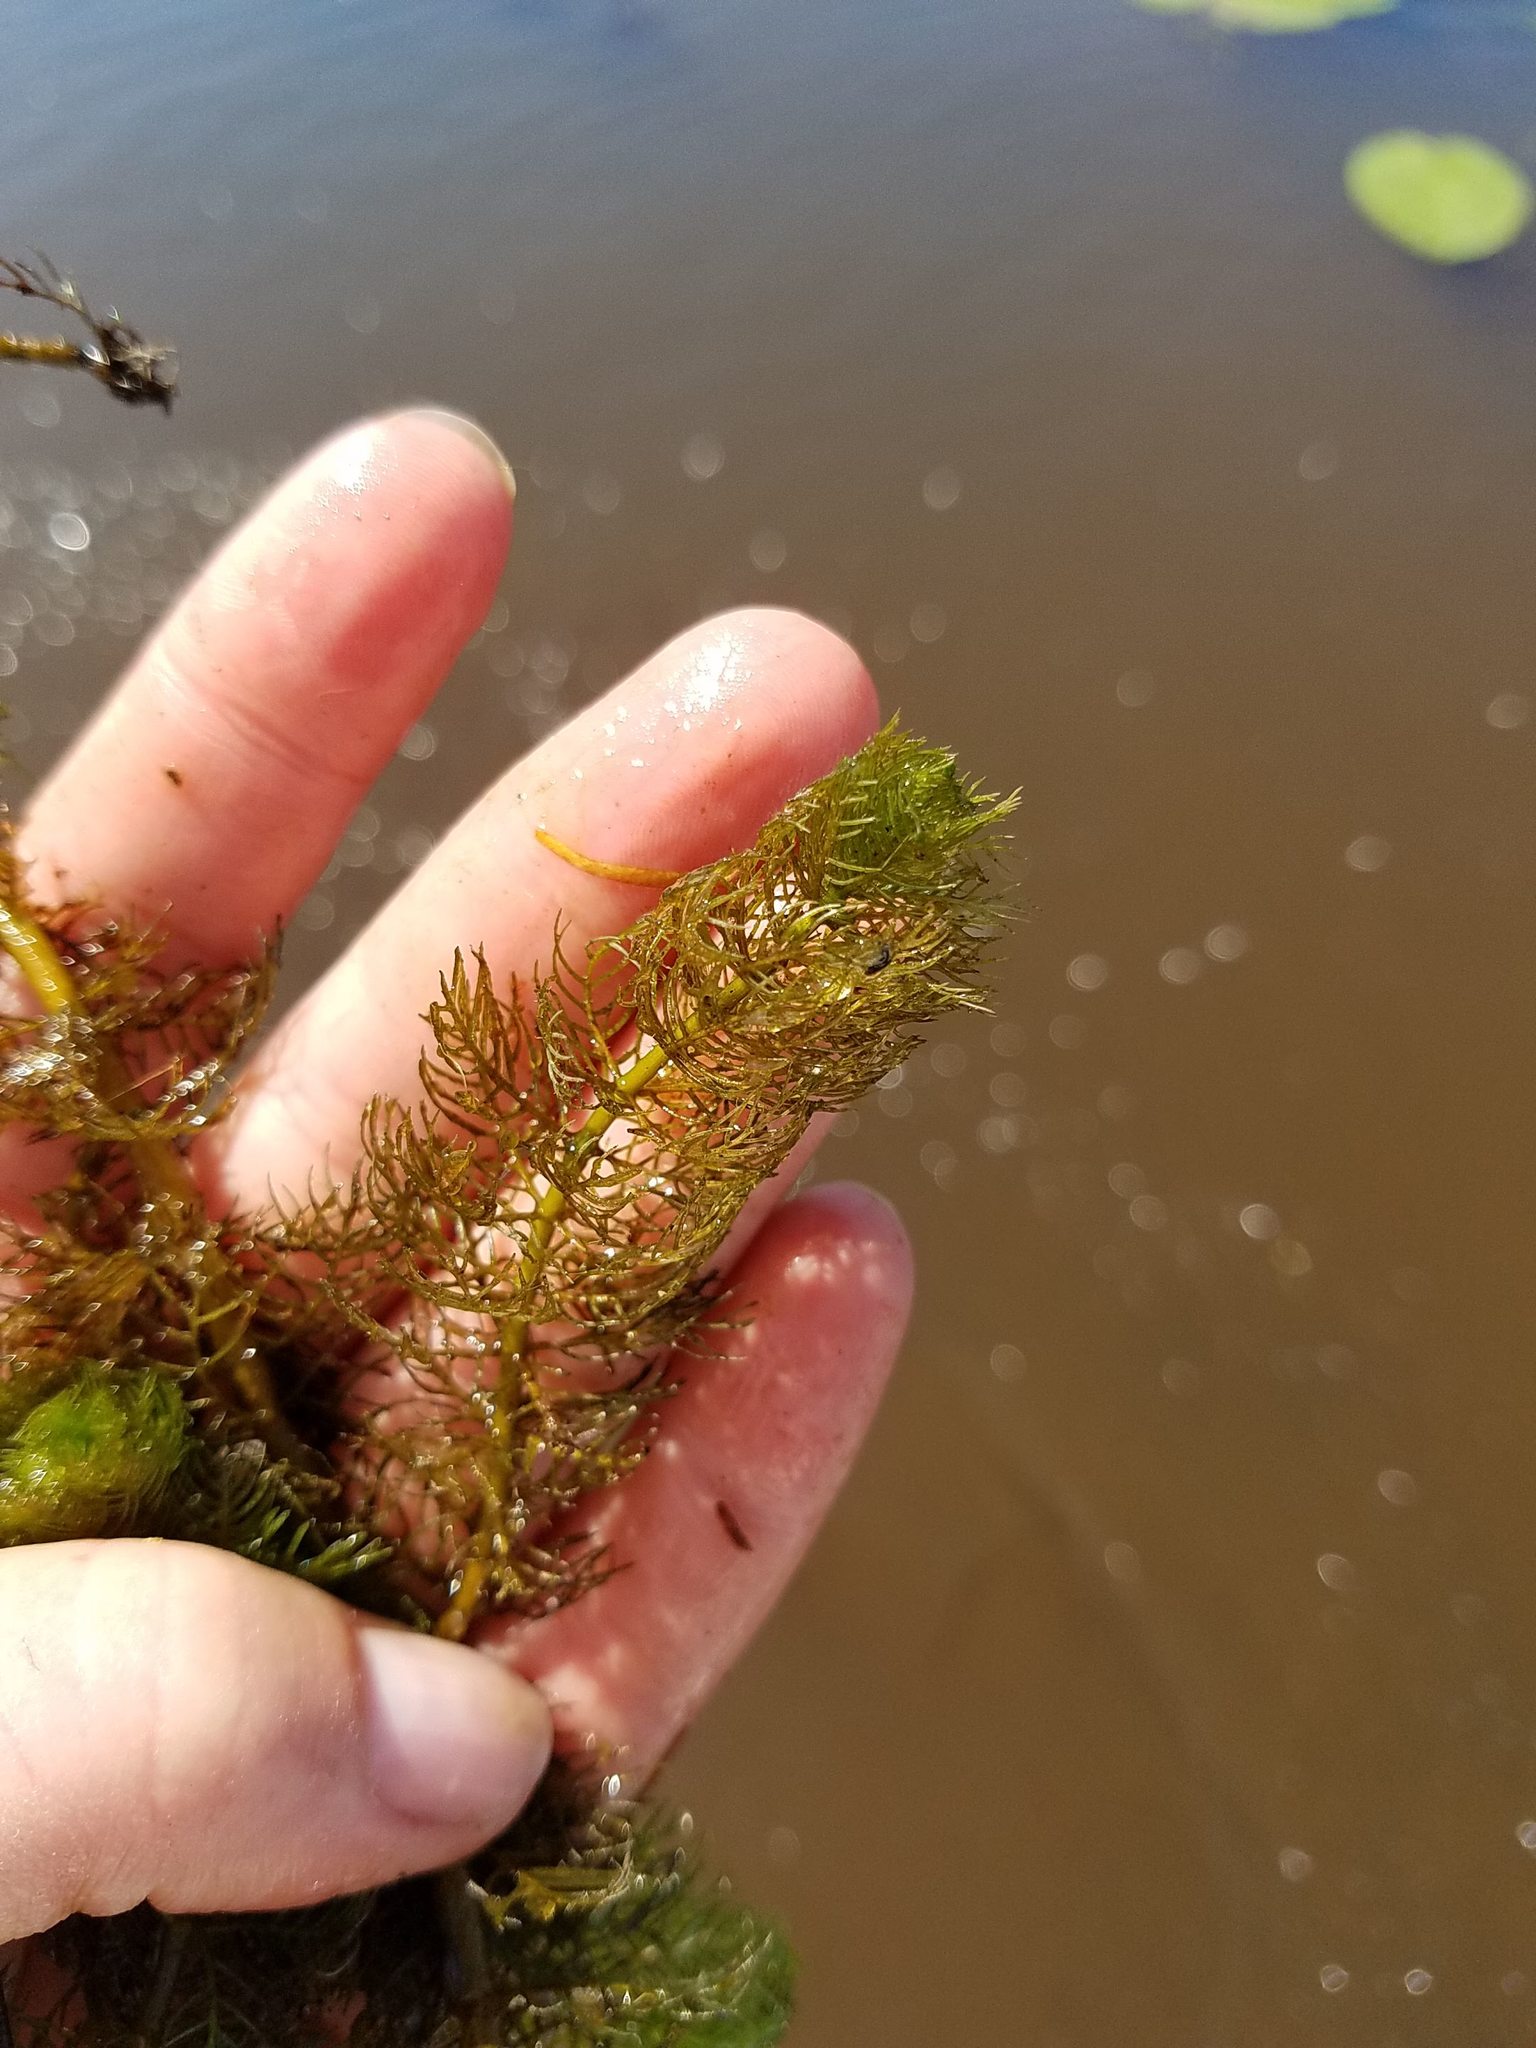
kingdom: Plantae
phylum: Tracheophyta
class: Magnoliopsida
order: Saxifragales
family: Haloragaceae
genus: Myriophyllum
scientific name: Myriophyllum sibiricum
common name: Siberian water-milfoil
